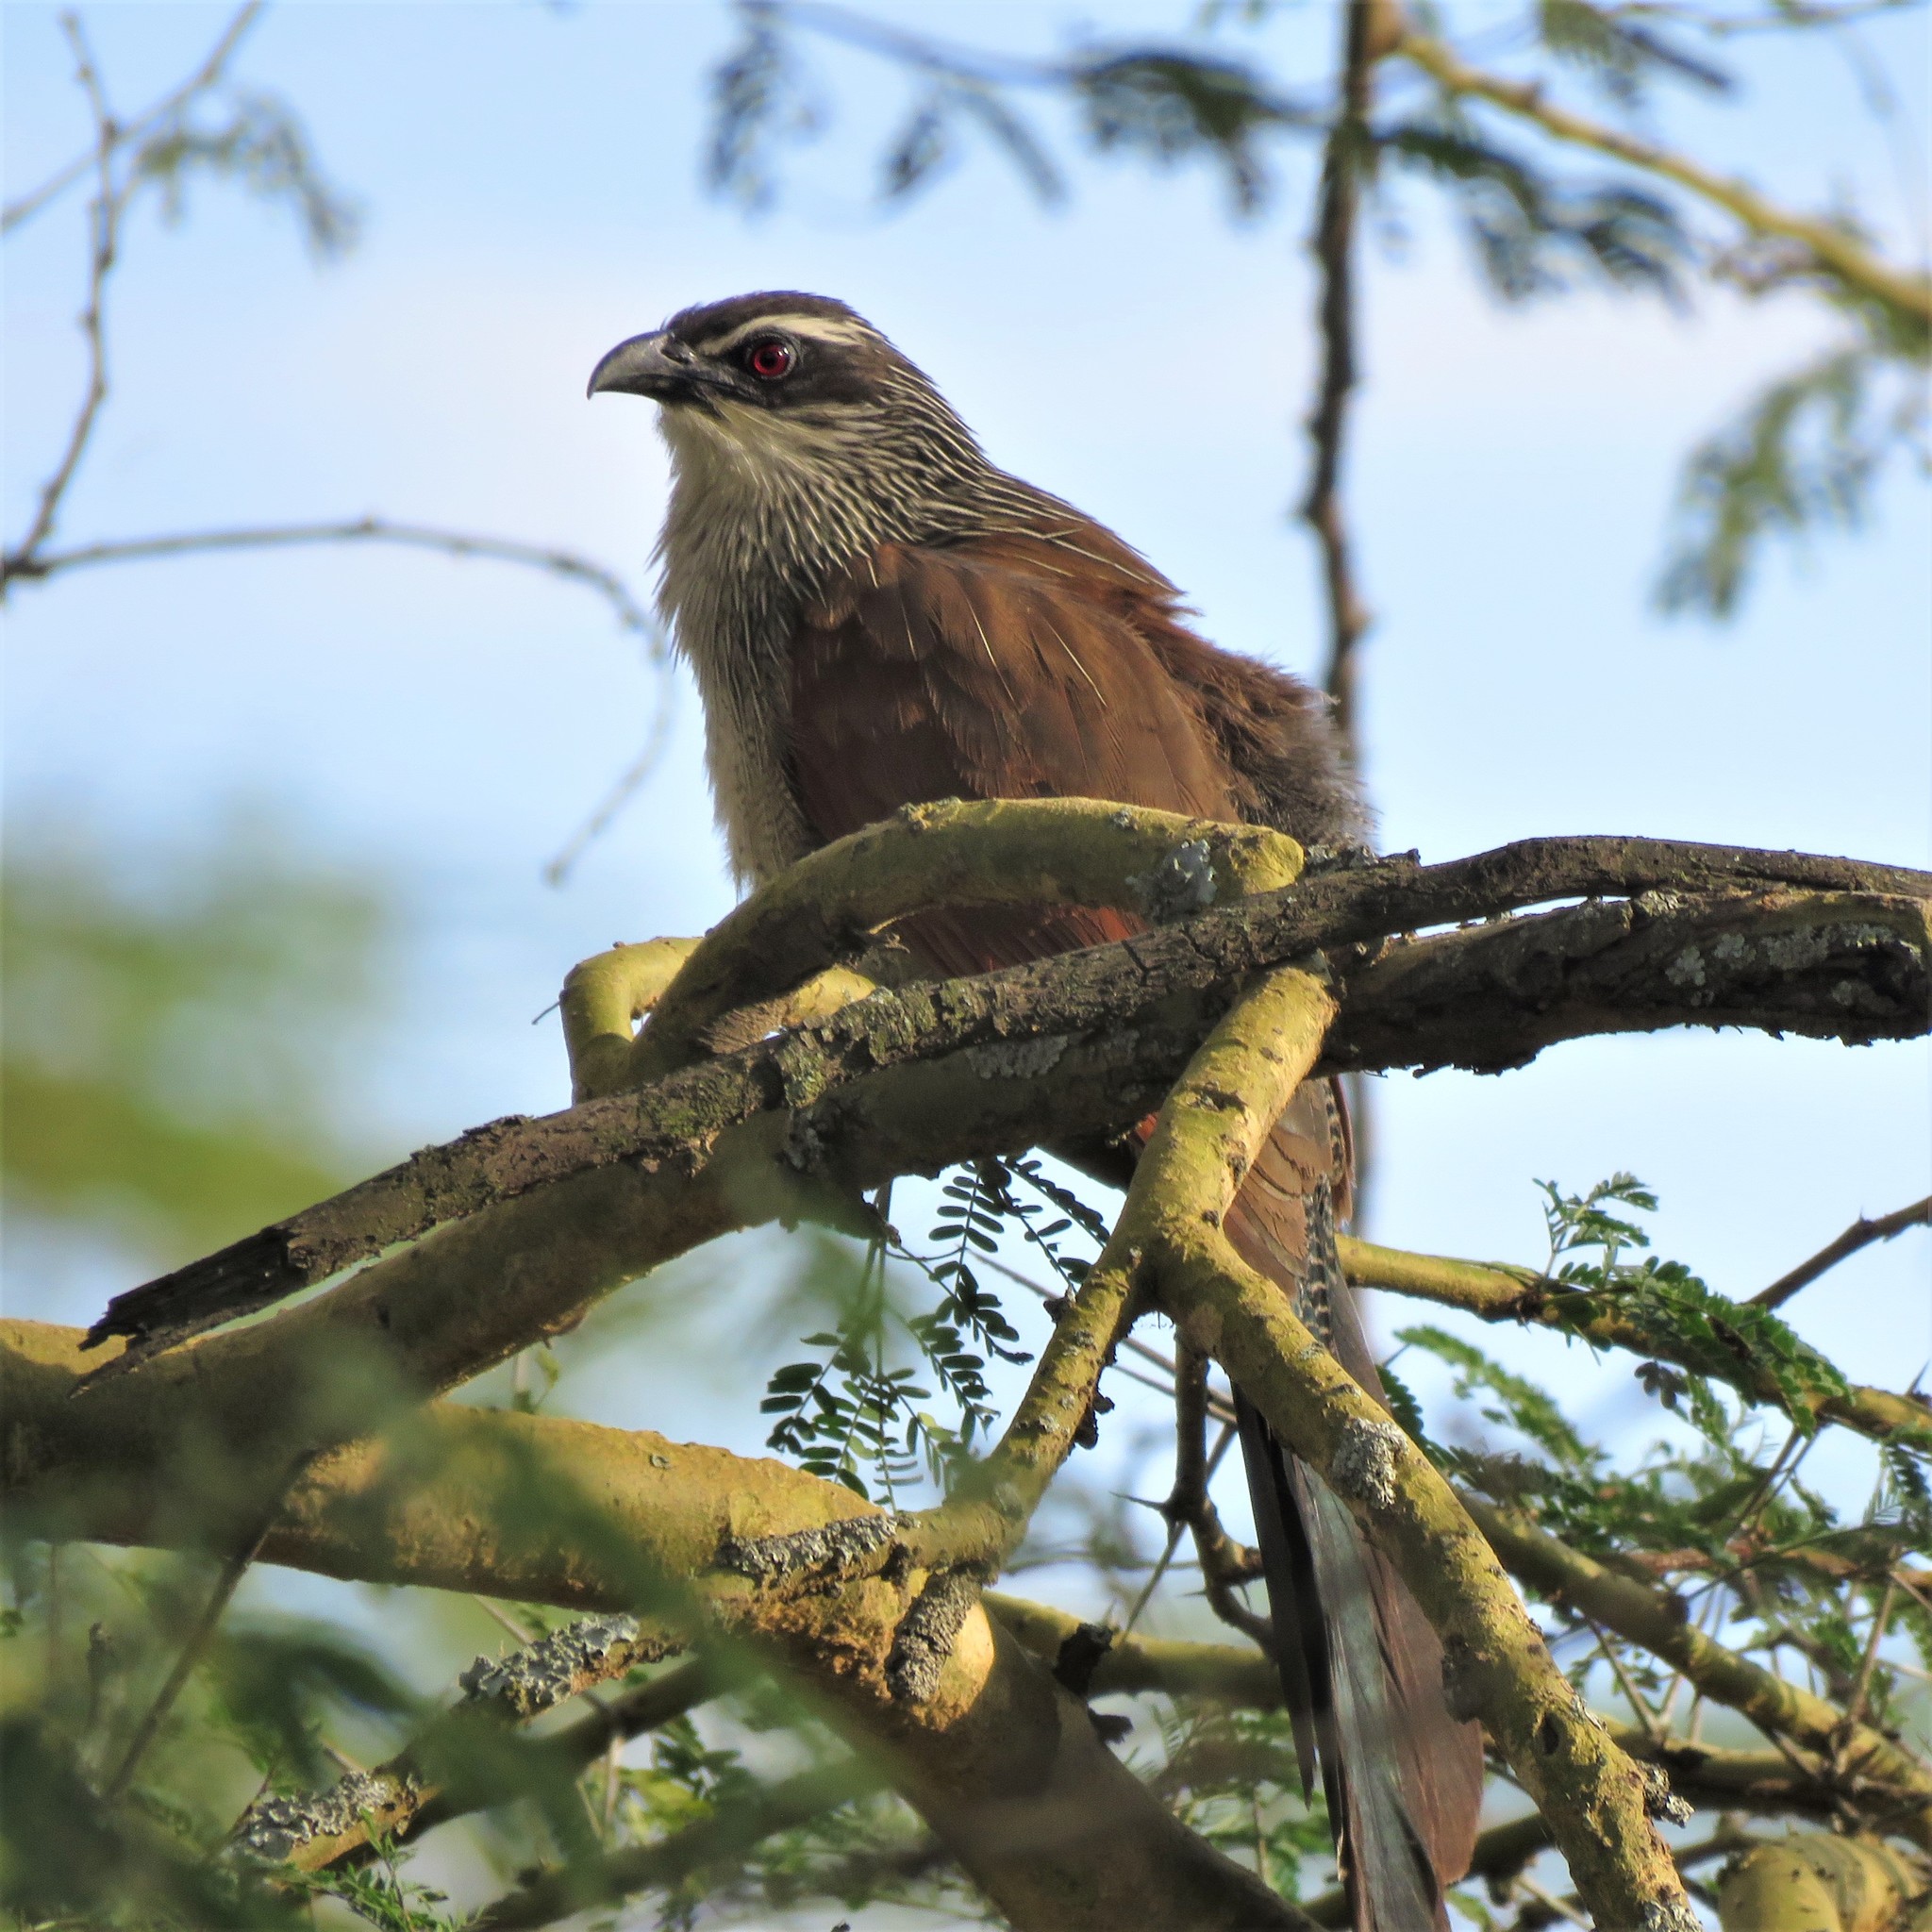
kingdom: Animalia
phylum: Chordata
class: Aves
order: Cuculiformes
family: Cuculidae
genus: Centropus
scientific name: Centropus superciliosus
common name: White-browed coucal
